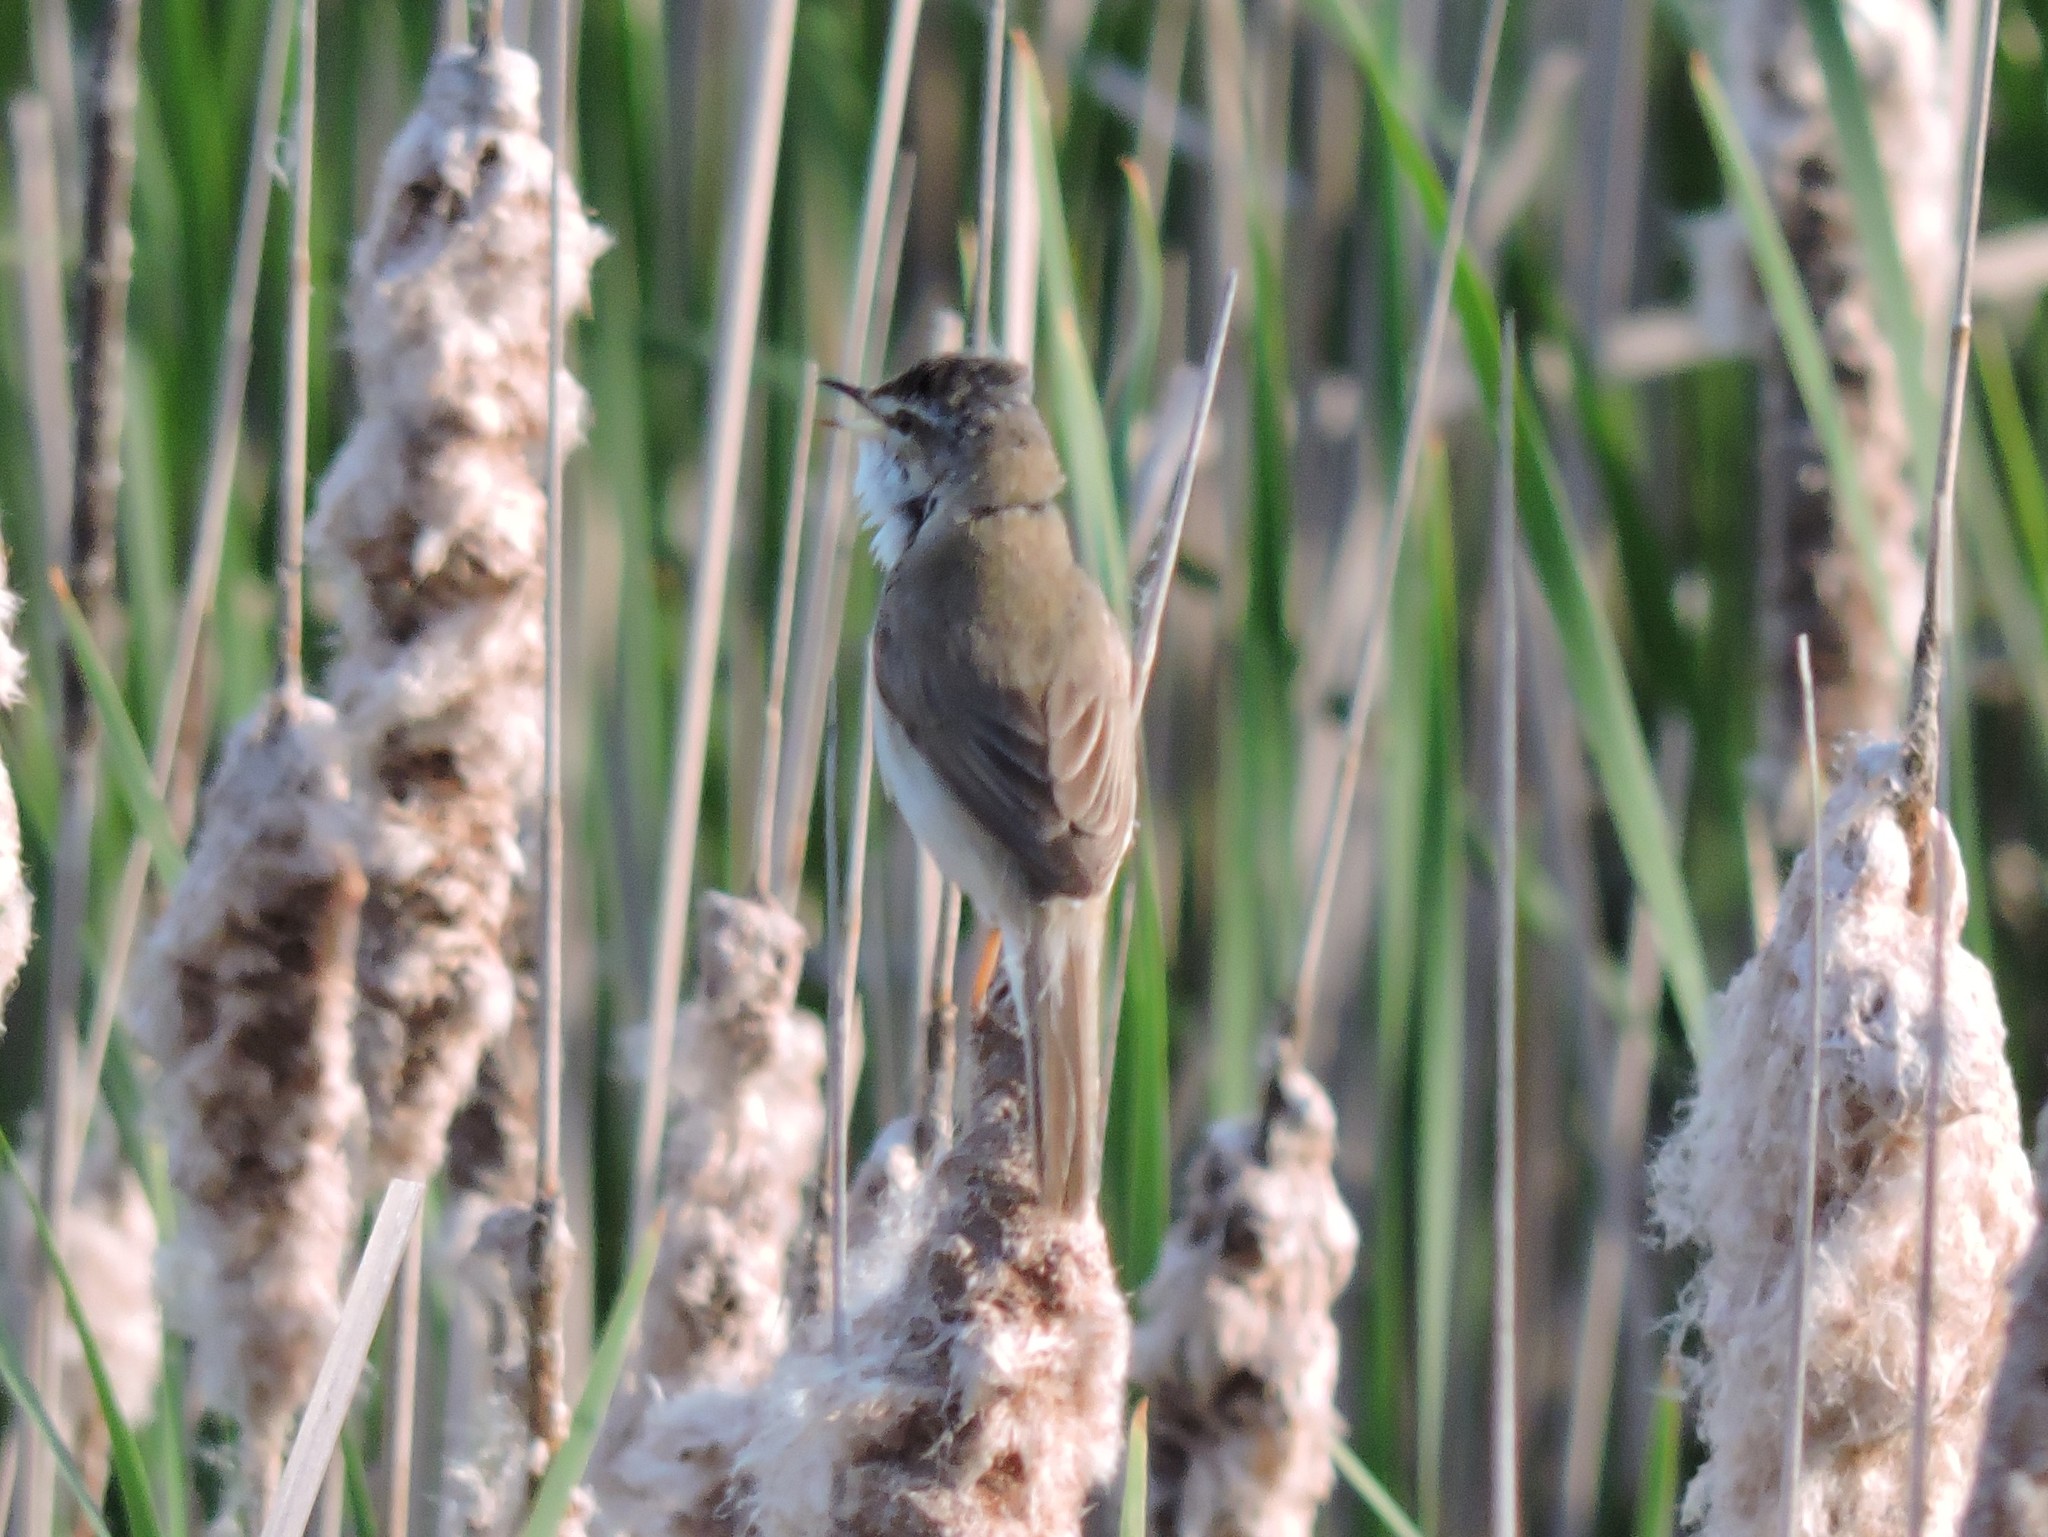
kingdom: Animalia
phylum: Chordata
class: Aves
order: Passeriformes
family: Acrocephalidae
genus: Acrocephalus
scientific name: Acrocephalus agricola
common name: Paddyfield warbler
